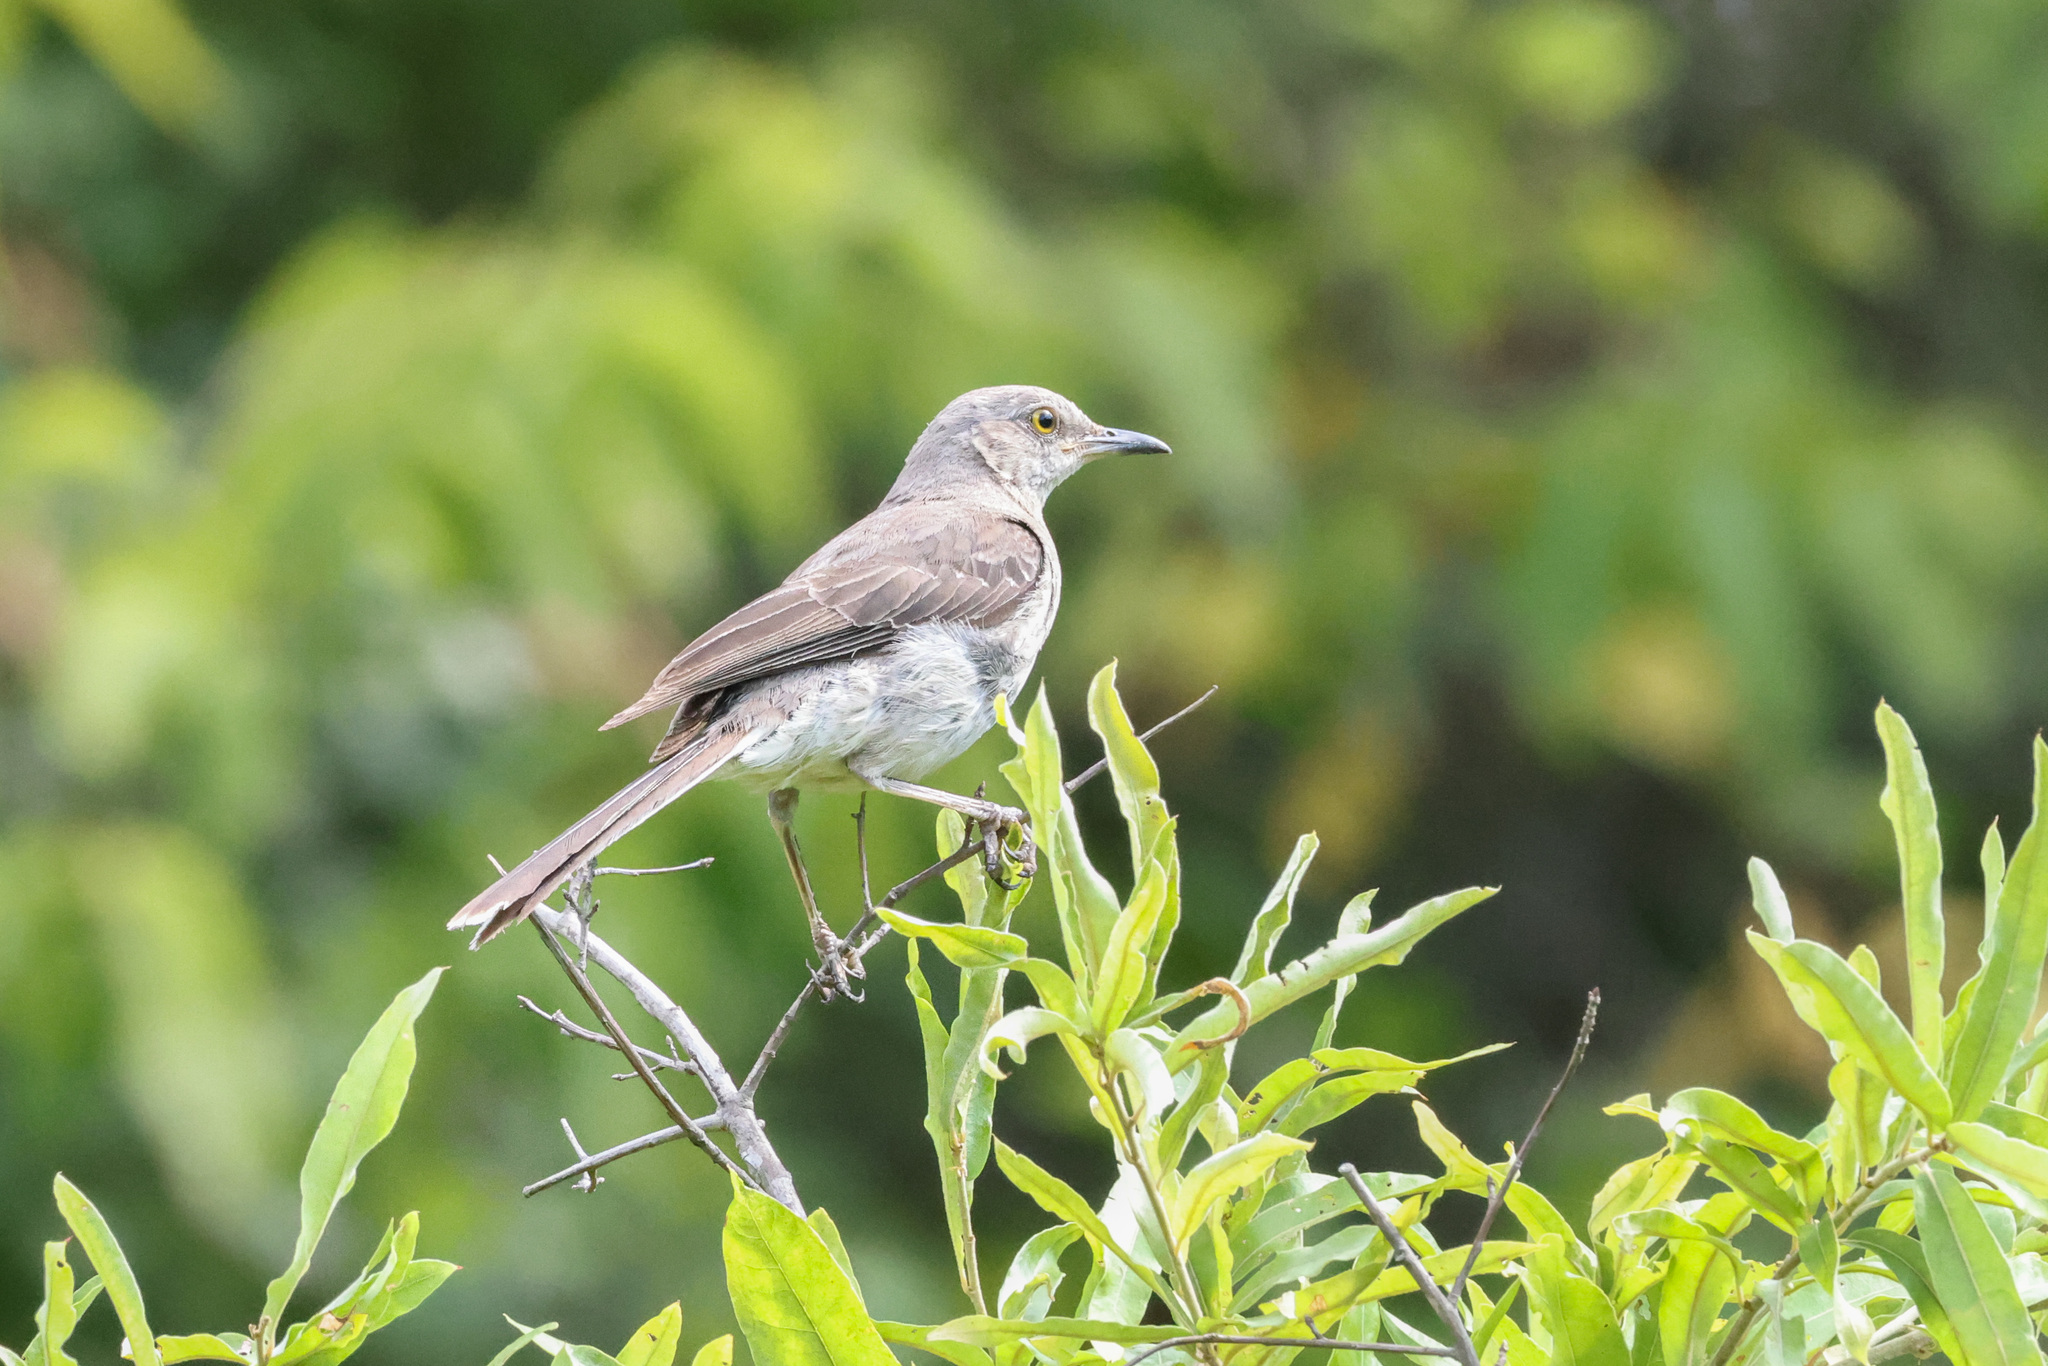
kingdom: Animalia
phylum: Chordata
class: Aves
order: Passeriformes
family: Mimidae
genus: Mimus
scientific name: Mimus polyglottos
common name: Northern mockingbird
